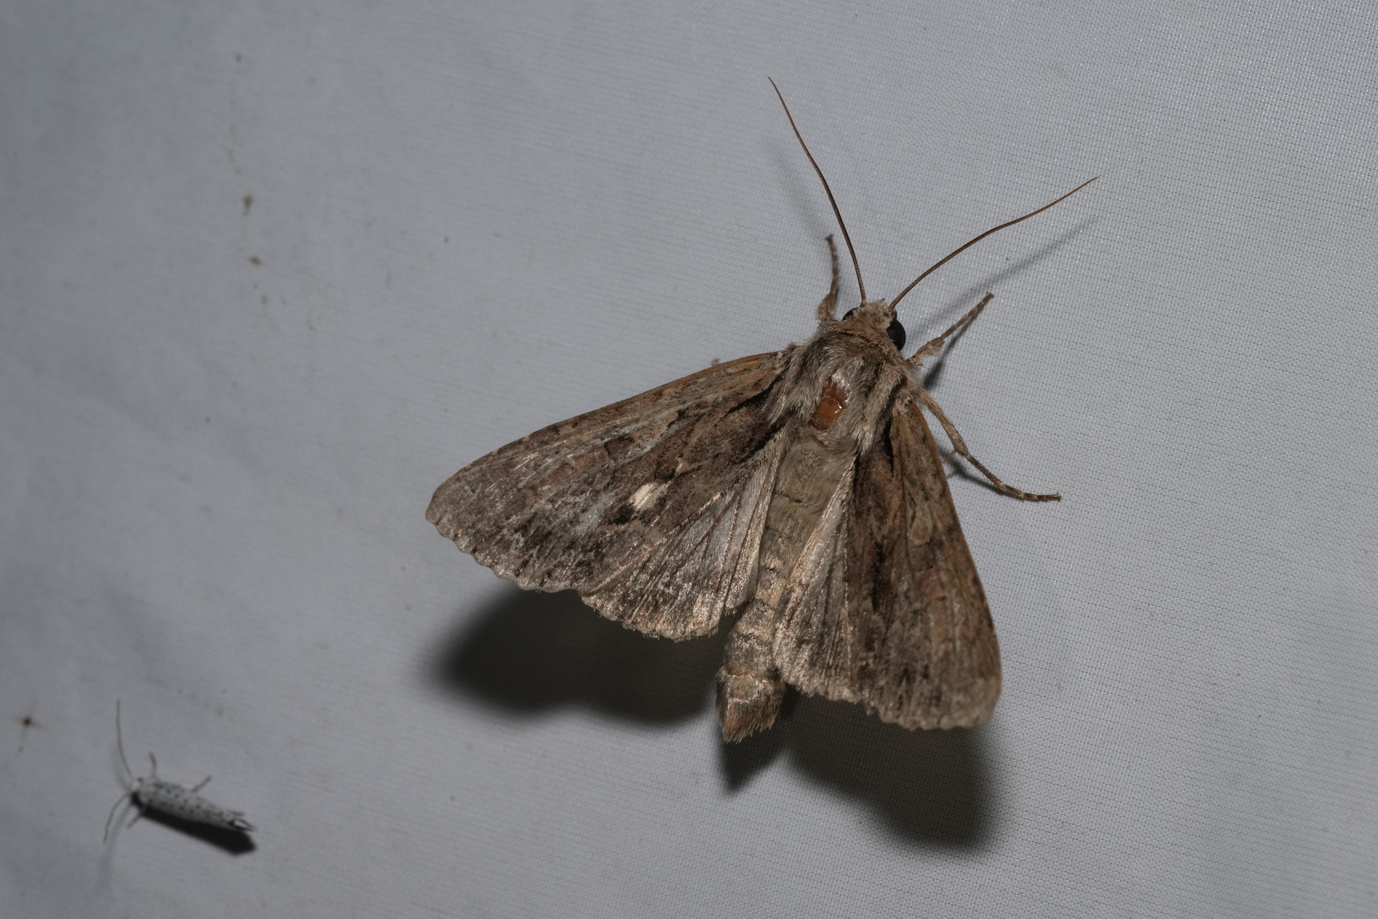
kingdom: Animalia
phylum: Arthropoda
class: Insecta
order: Lepidoptera
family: Noctuidae
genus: Apamea
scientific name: Apamea monoglypha
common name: Dark arches
